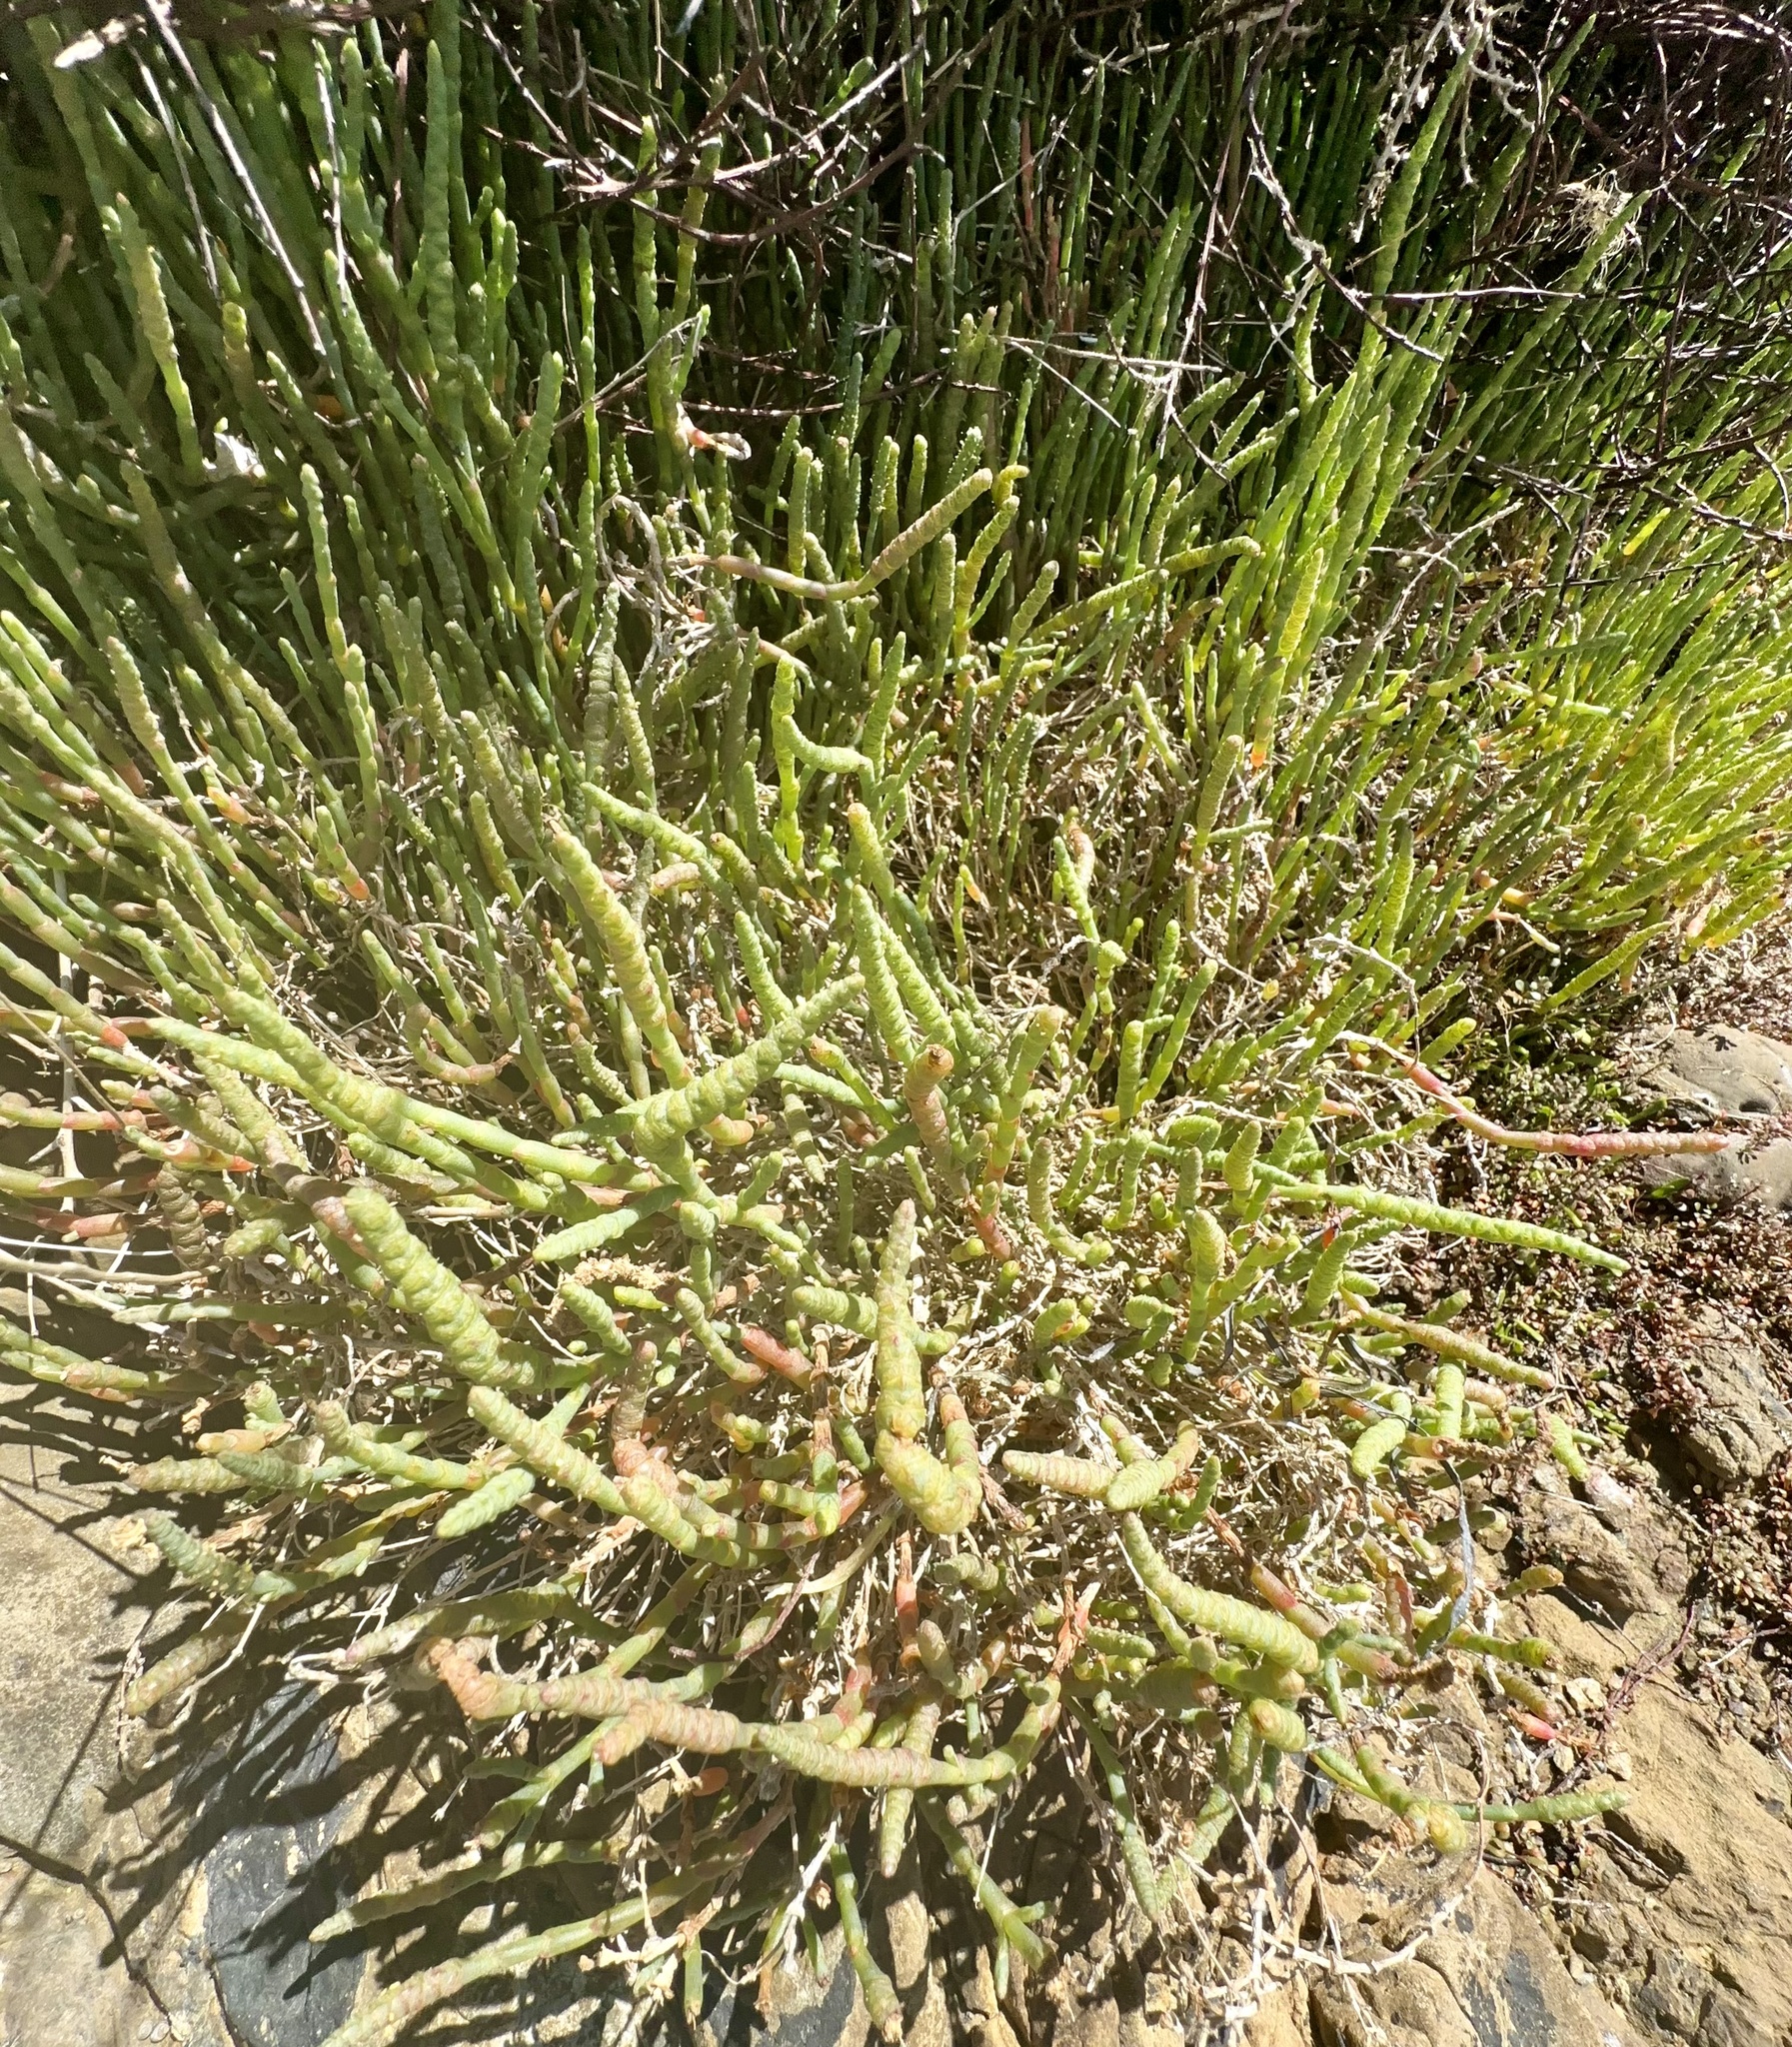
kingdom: Plantae
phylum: Tracheophyta
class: Magnoliopsida
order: Caryophyllales
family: Amaranthaceae
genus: Salicornia
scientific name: Salicornia quinqueflora
